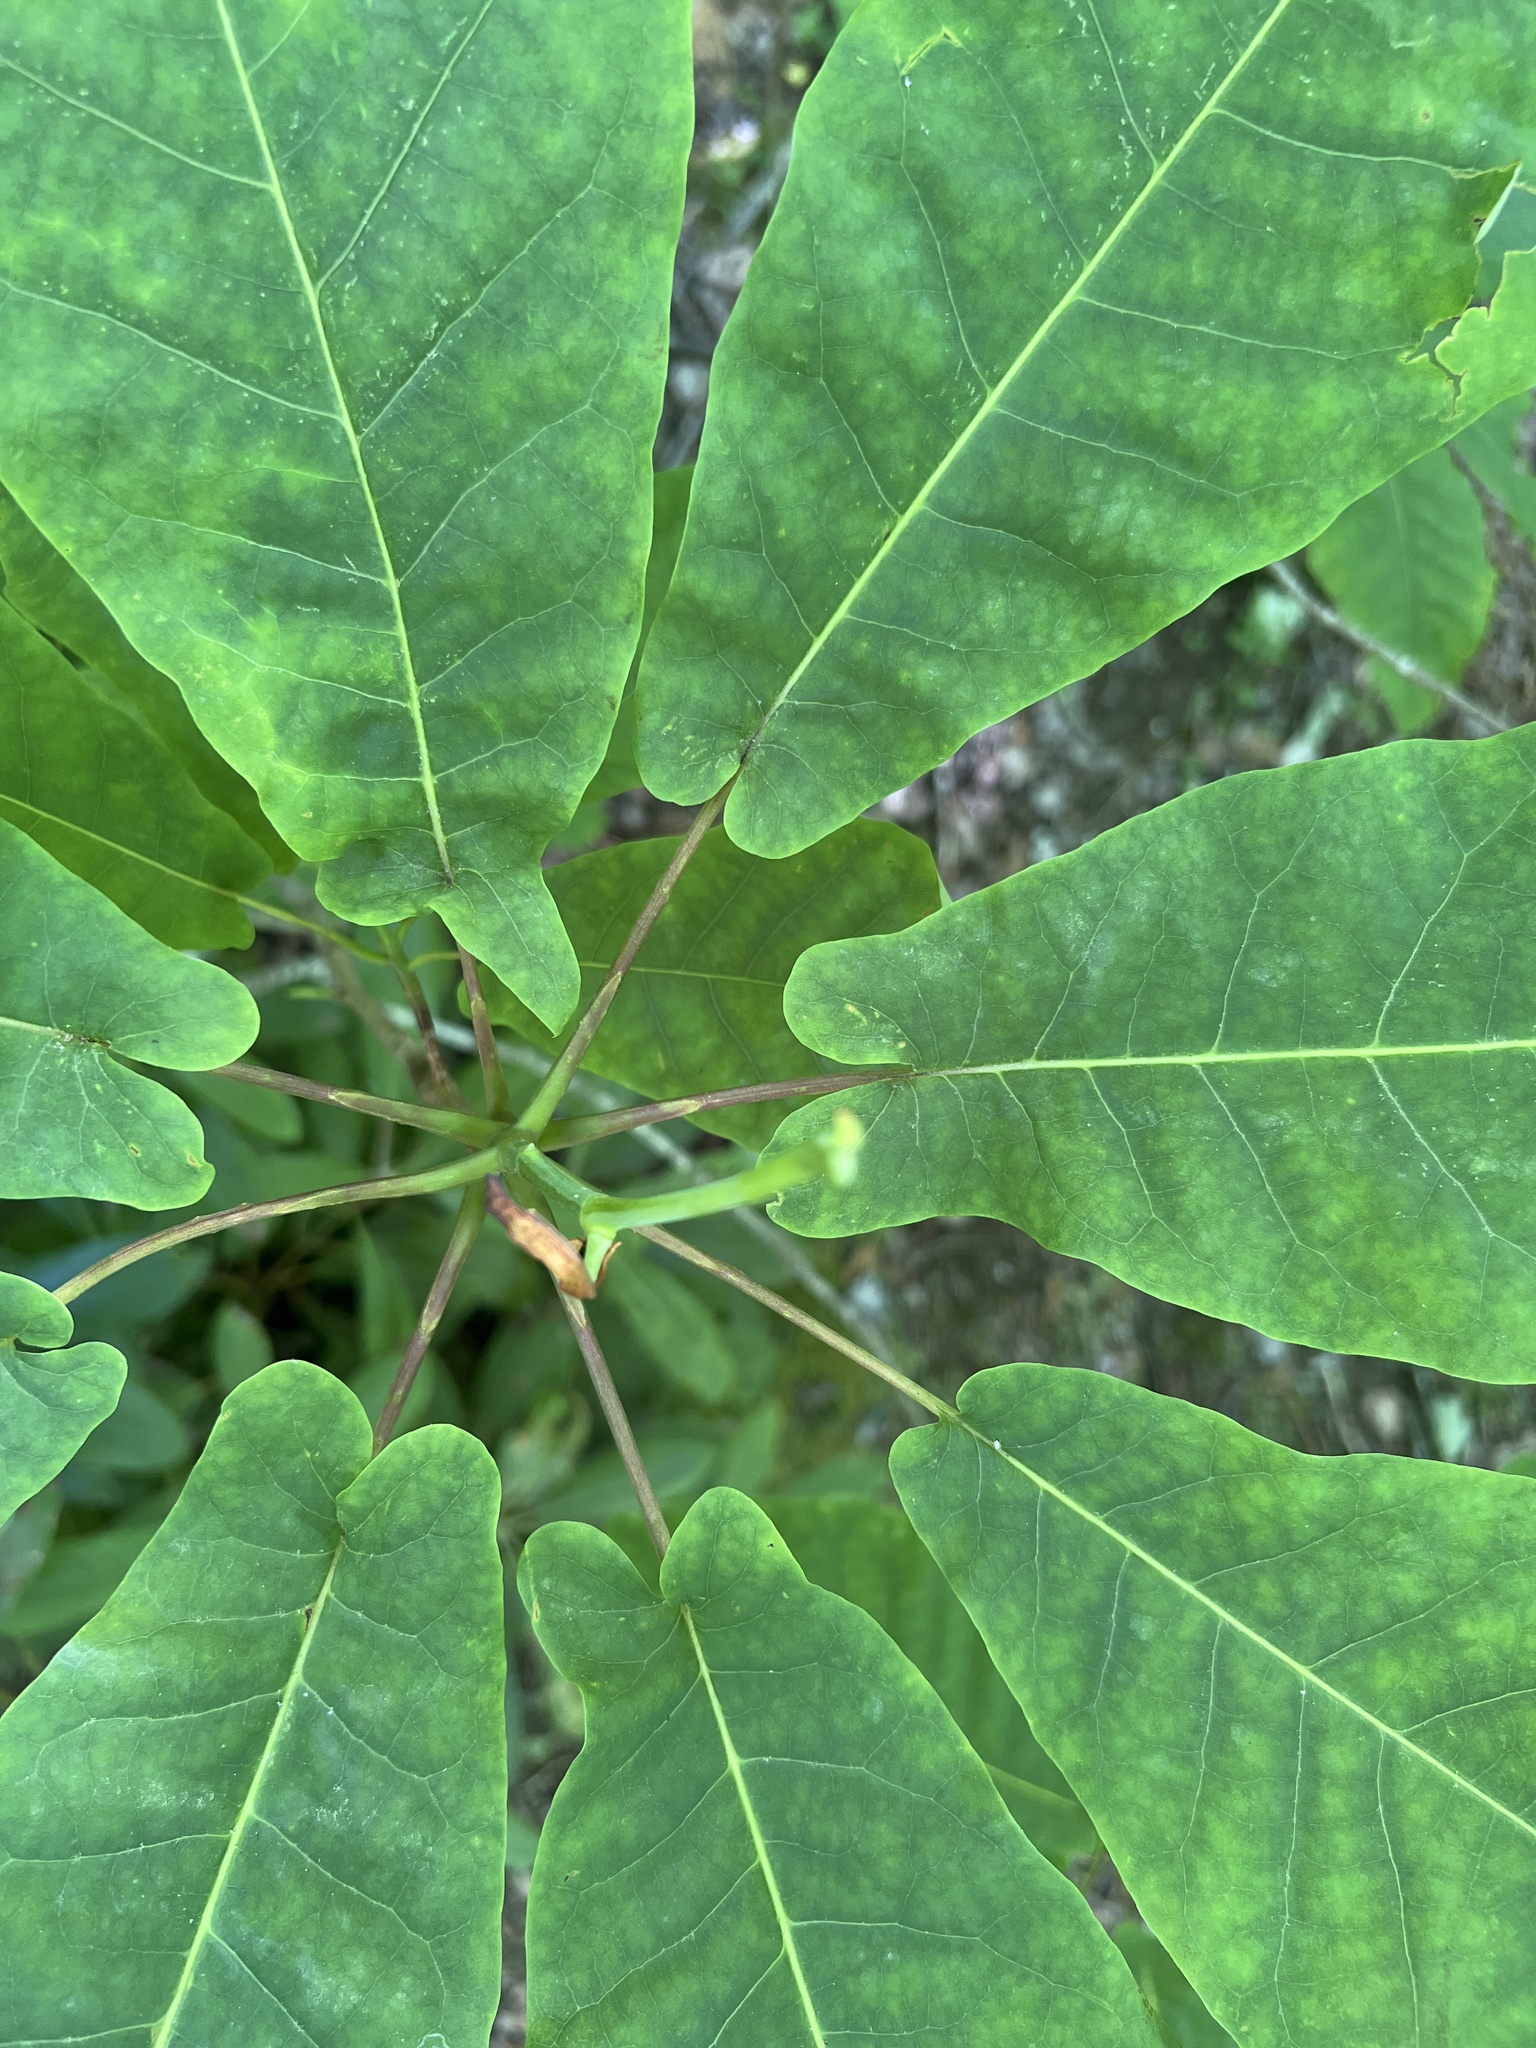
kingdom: Plantae
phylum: Tracheophyta
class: Magnoliopsida
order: Magnoliales
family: Magnoliaceae
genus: Magnolia
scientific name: Magnolia fraseri
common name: Fraser's magnolia
